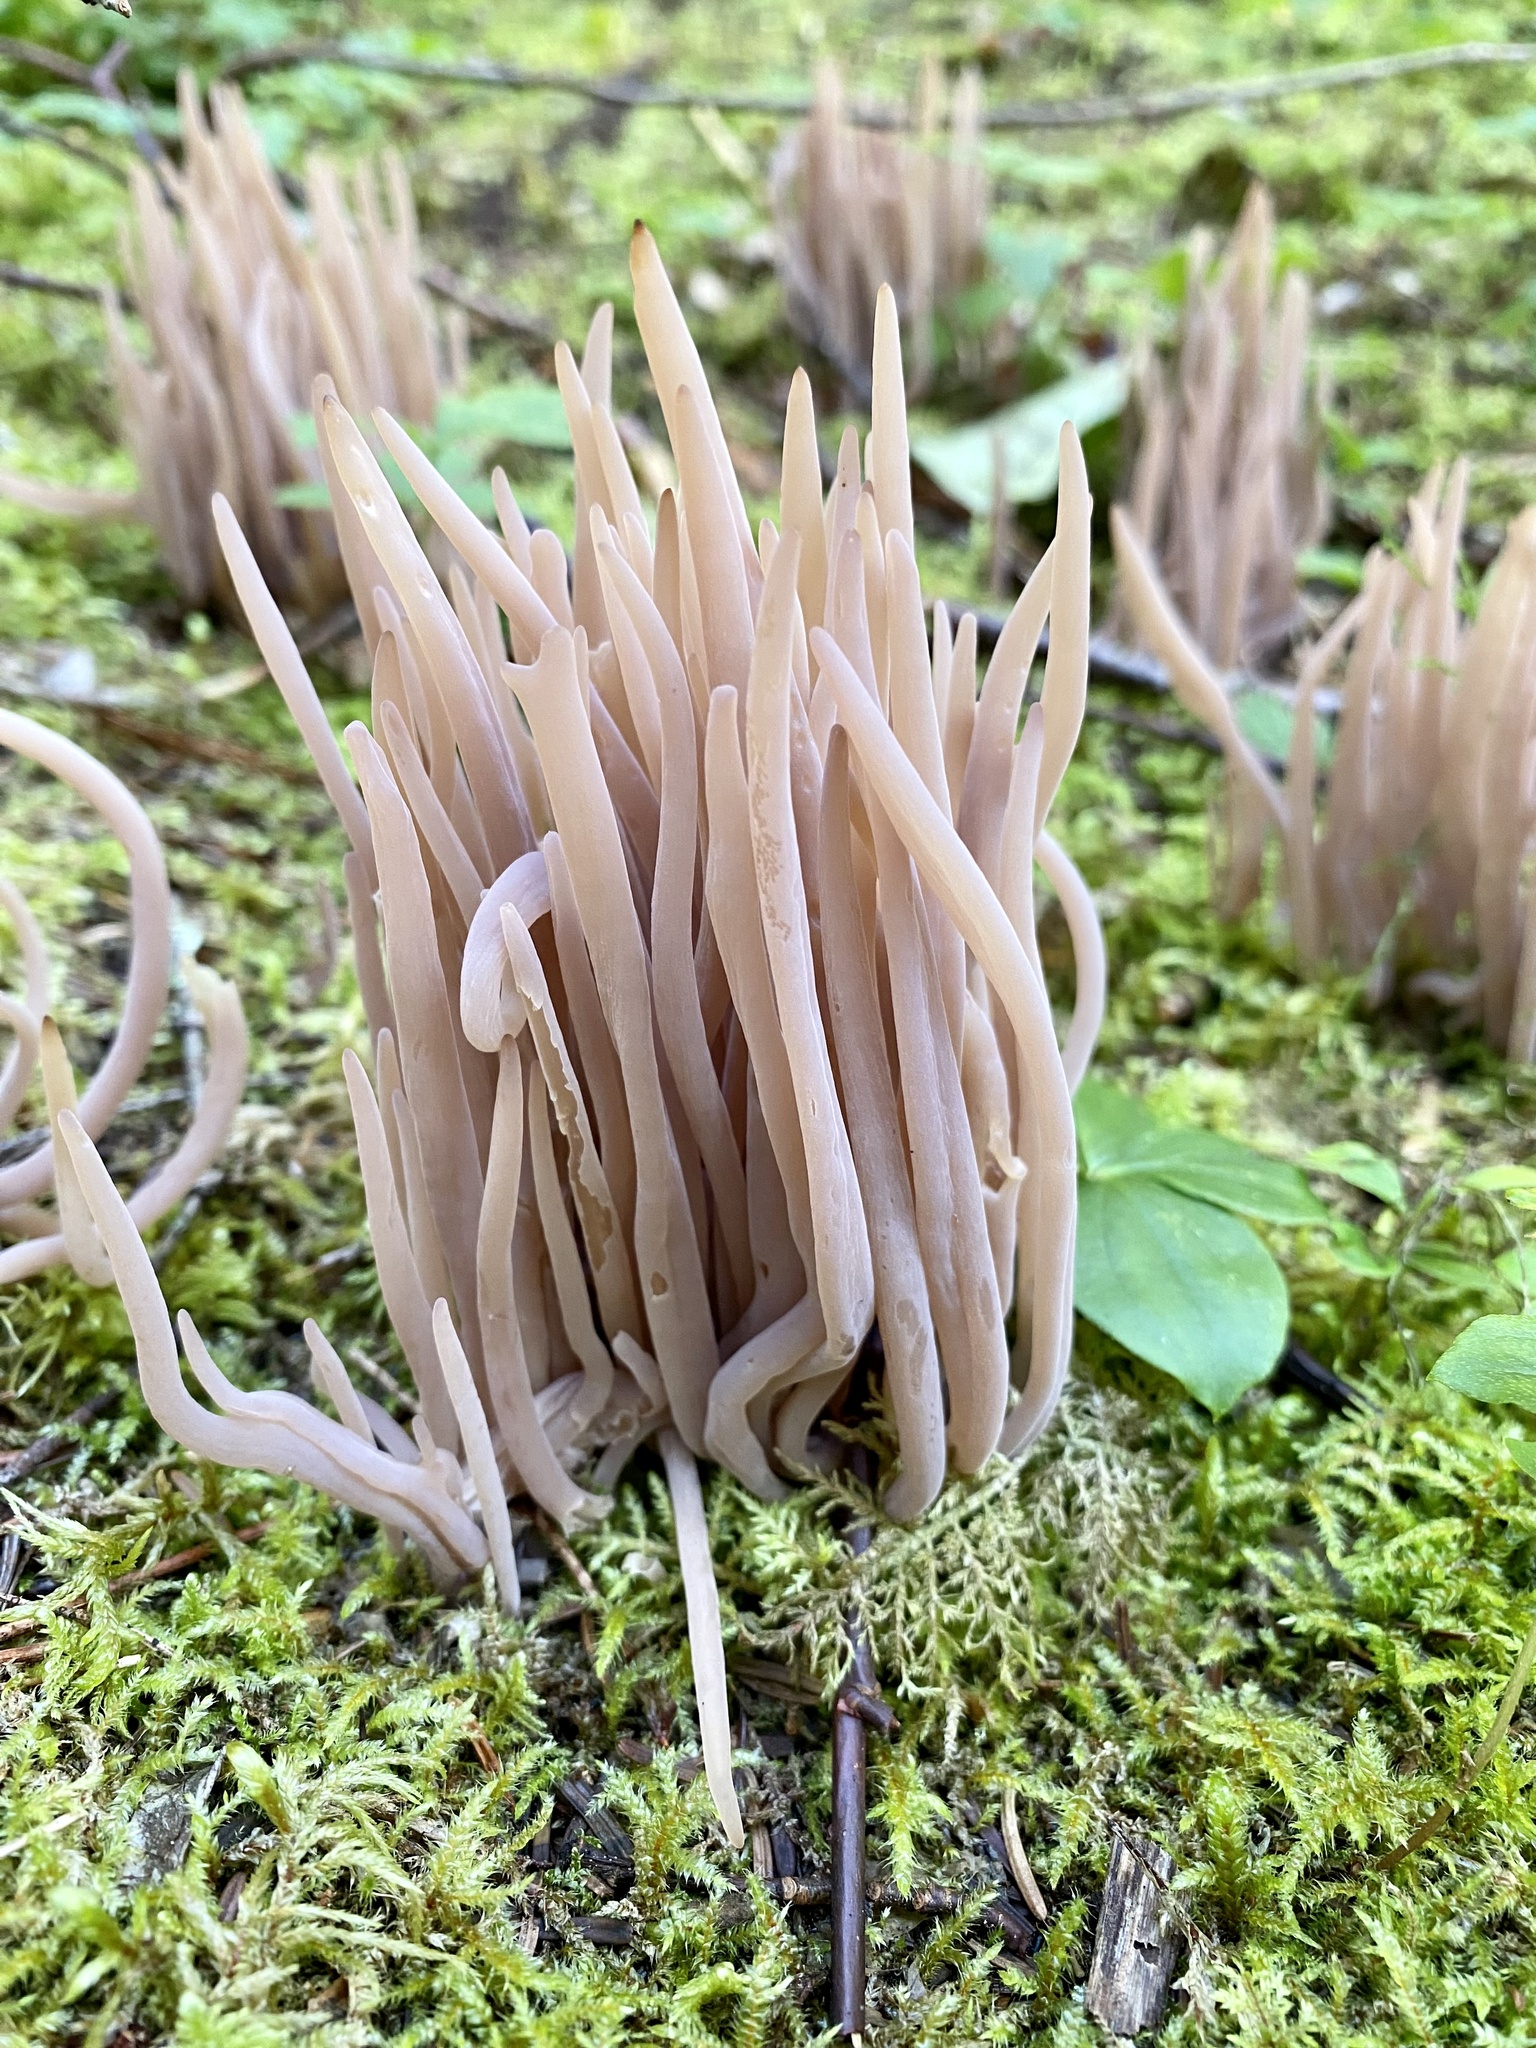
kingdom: Fungi
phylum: Basidiomycota
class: Agaricomycetes
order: Agaricales
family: Clavariaceae
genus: Clavaria
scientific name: Clavaria fumosa
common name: Smoky spindles
